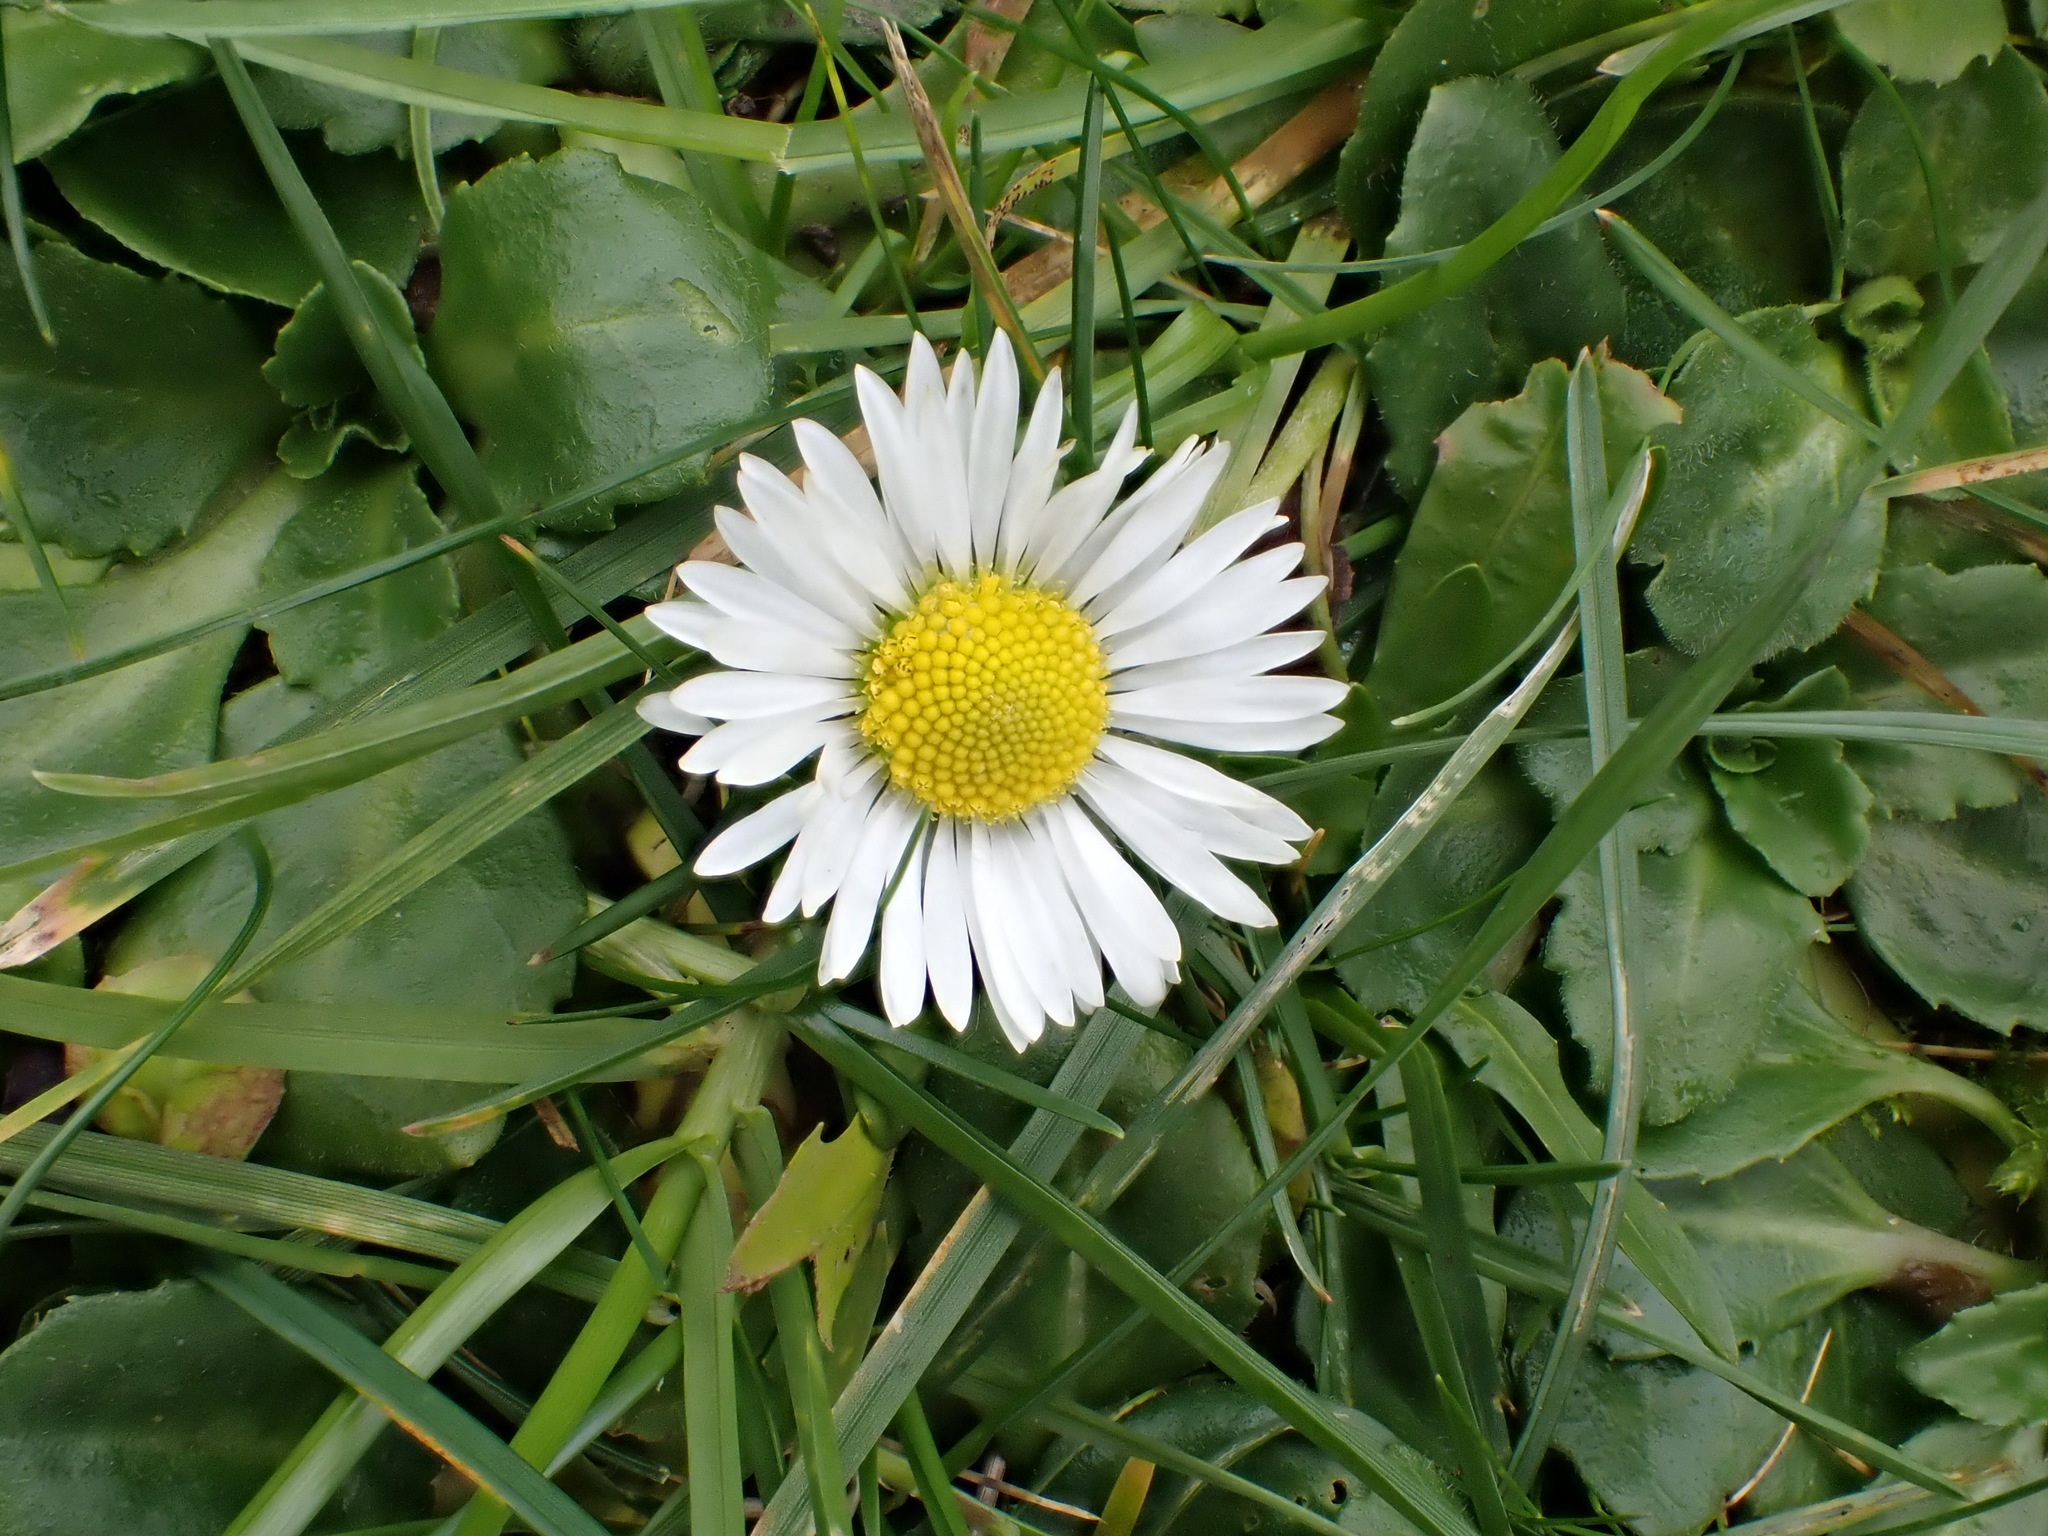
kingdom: Plantae
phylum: Tracheophyta
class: Magnoliopsida
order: Asterales
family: Asteraceae
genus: Bellis
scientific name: Bellis perennis
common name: Lawndaisy
